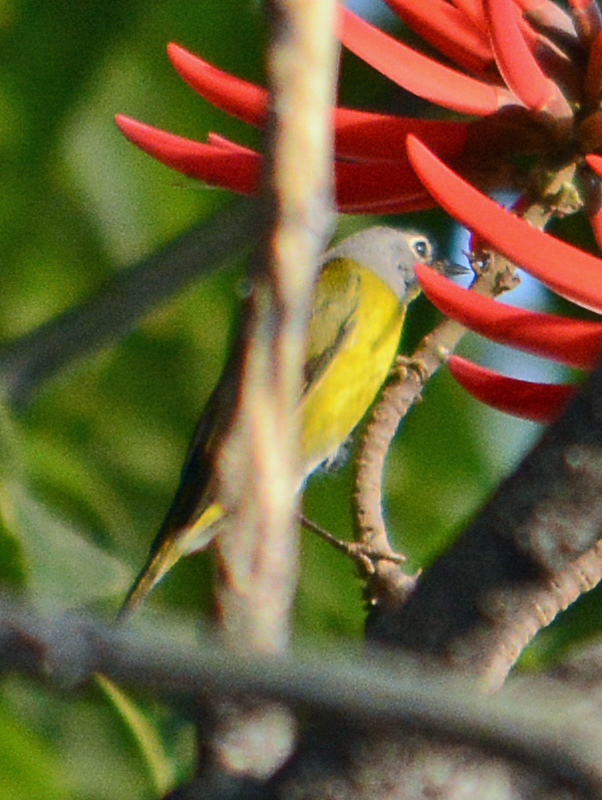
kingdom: Animalia
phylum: Chordata
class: Aves
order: Passeriformes
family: Parulidae
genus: Leiothlypis
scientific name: Leiothlypis ruficapilla
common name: Nashville warbler
